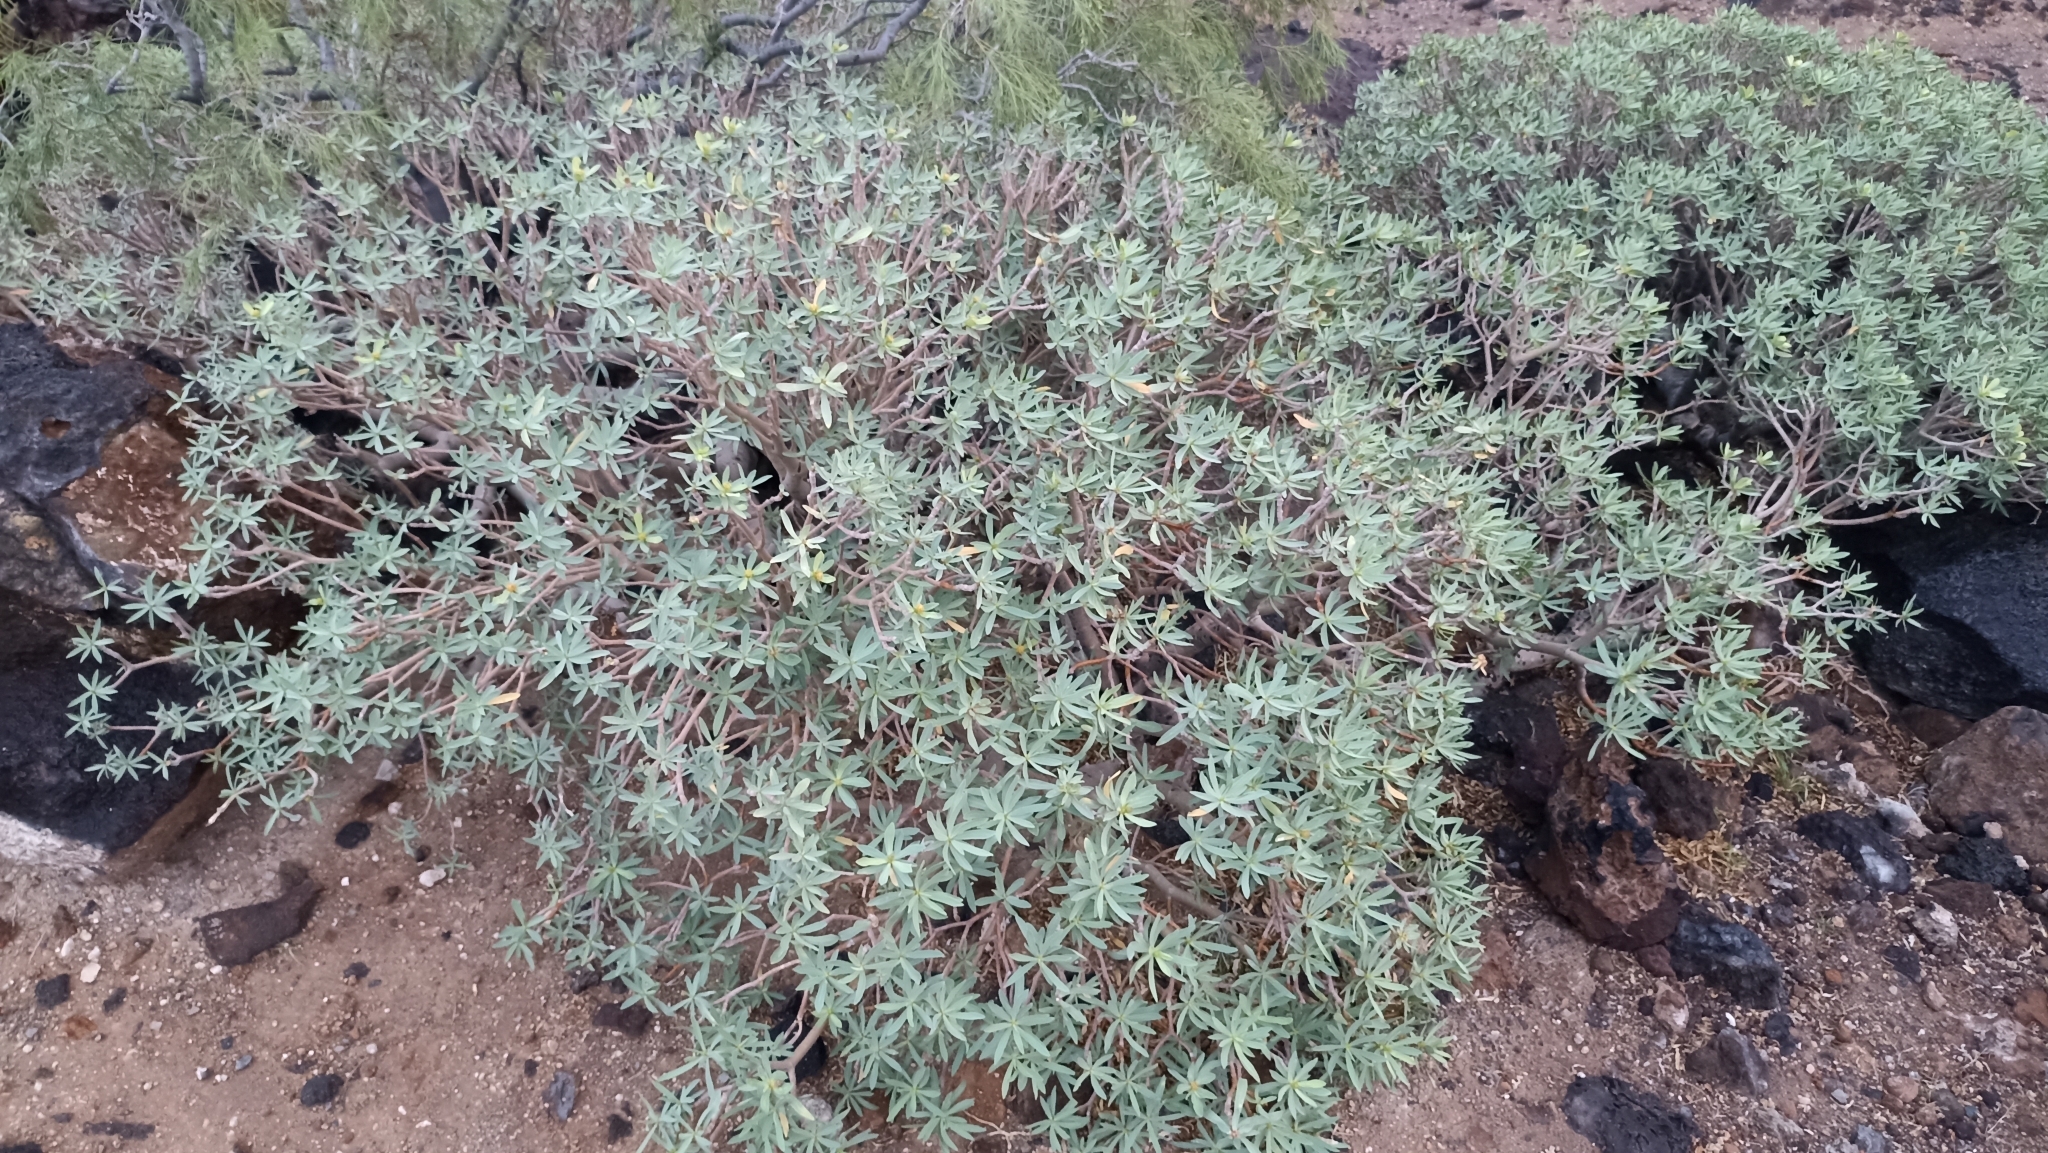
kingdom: Plantae
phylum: Tracheophyta
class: Magnoliopsida
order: Malpighiales
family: Euphorbiaceae
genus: Euphorbia
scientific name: Euphorbia balsamifera
